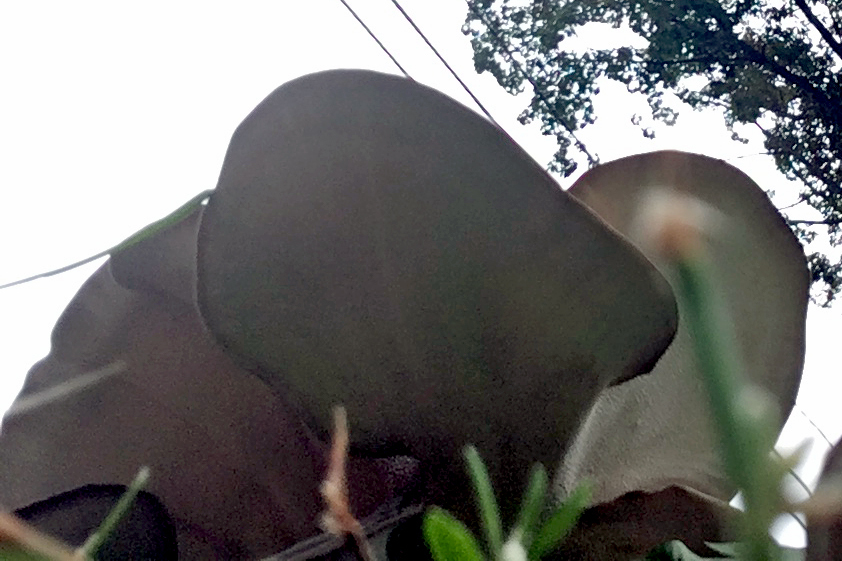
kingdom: Fungi
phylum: Basidiomycota
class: Agaricomycetes
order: Polyporales
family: Grifolaceae
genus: Grifola
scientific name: Grifola frondosa
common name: Hen of the woods
